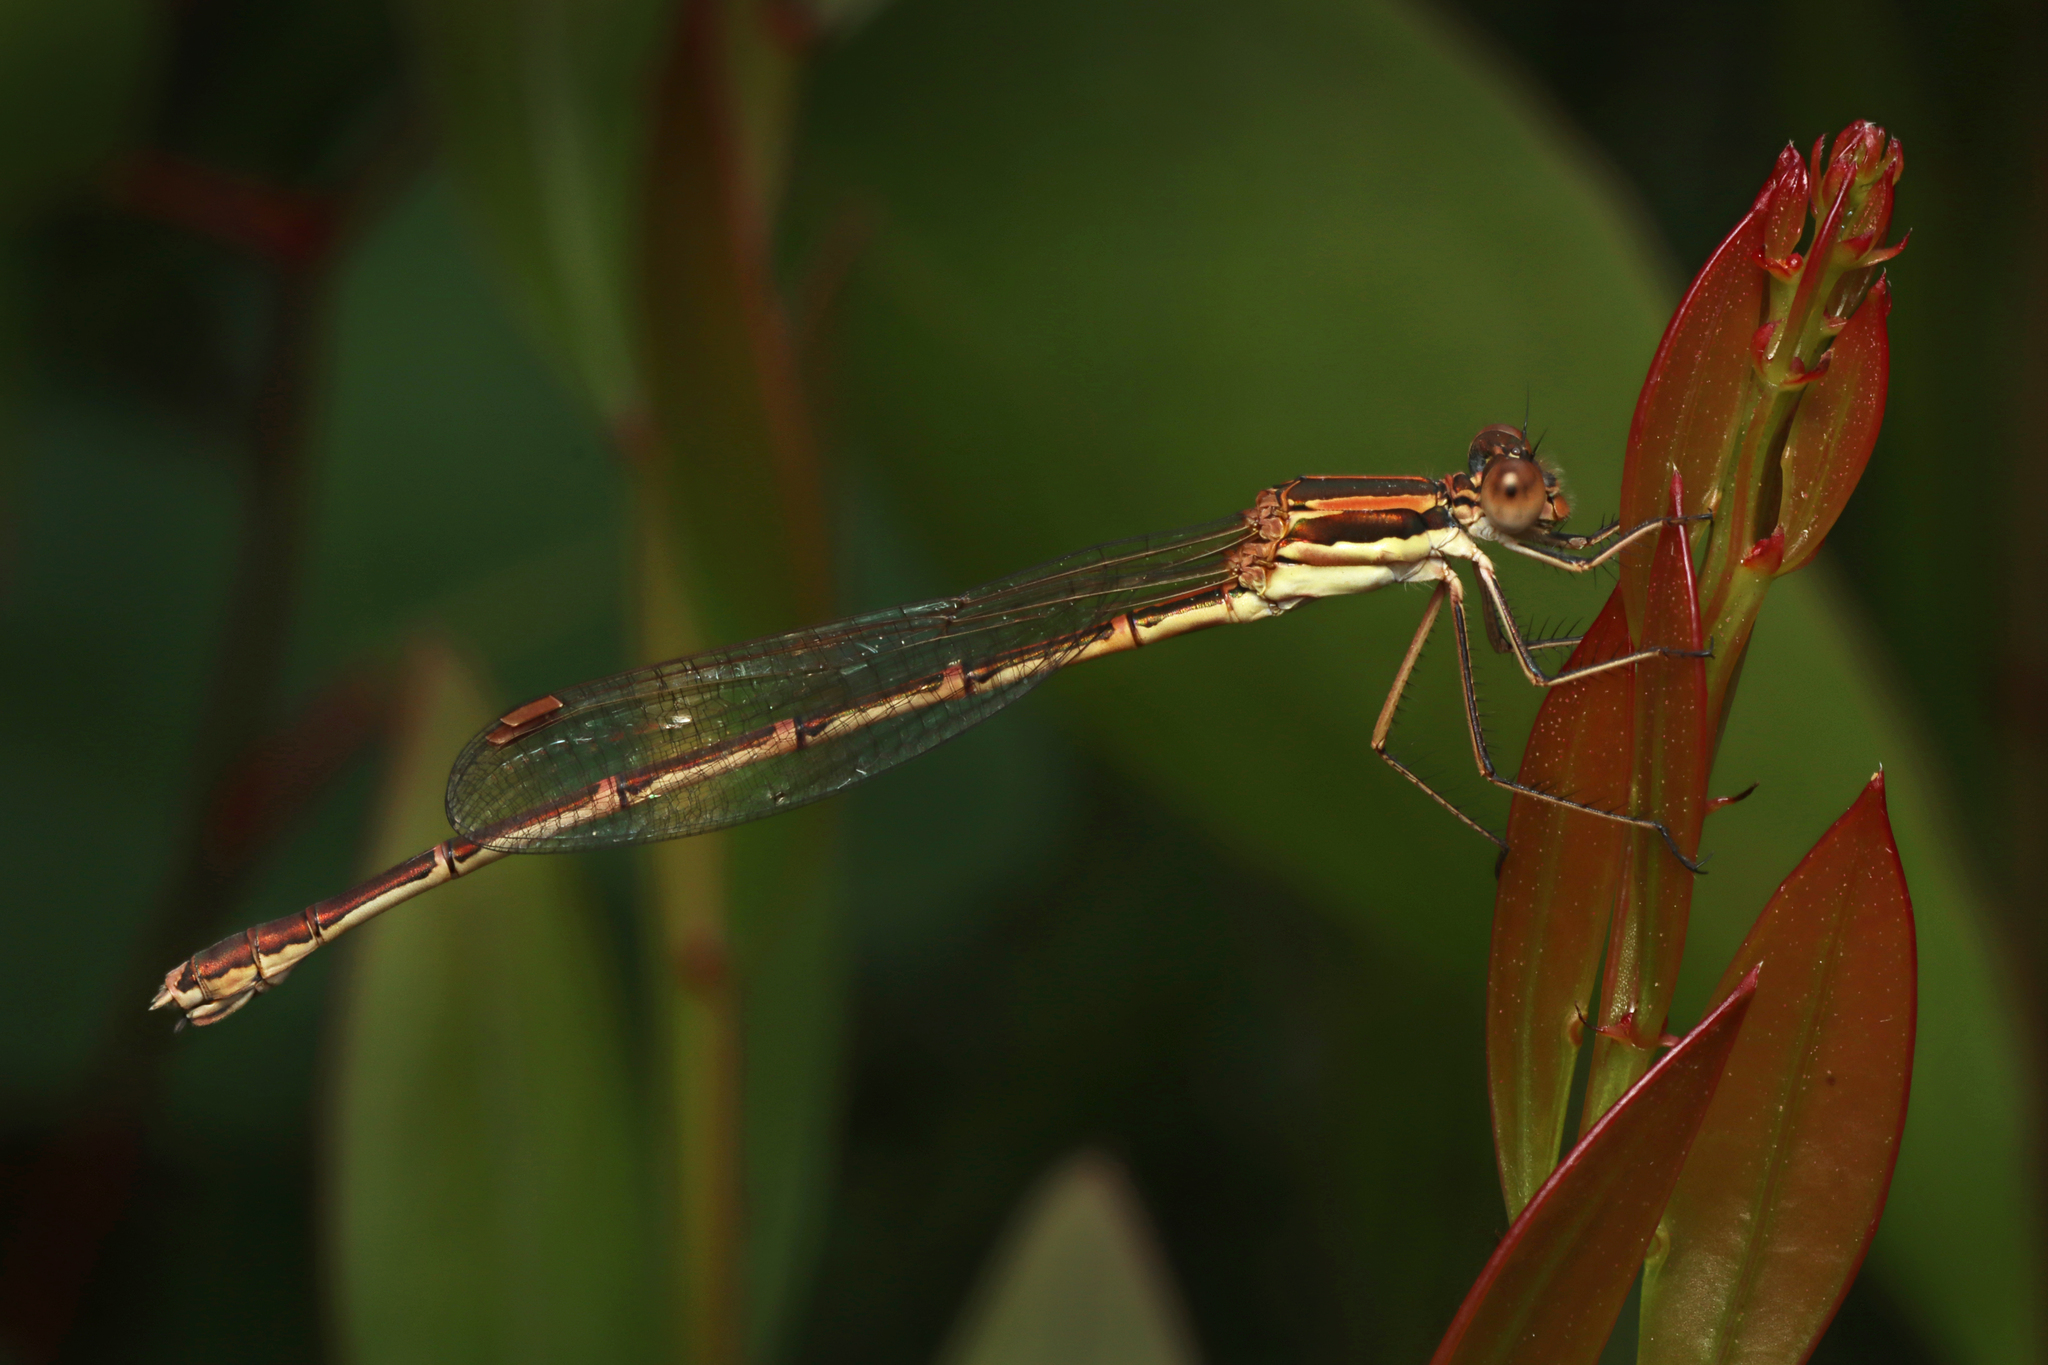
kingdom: Animalia
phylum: Arthropoda
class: Insecta
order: Odonata
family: Lestidae
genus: Austrolestes
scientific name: Austrolestes analis
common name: Slender ringtail
